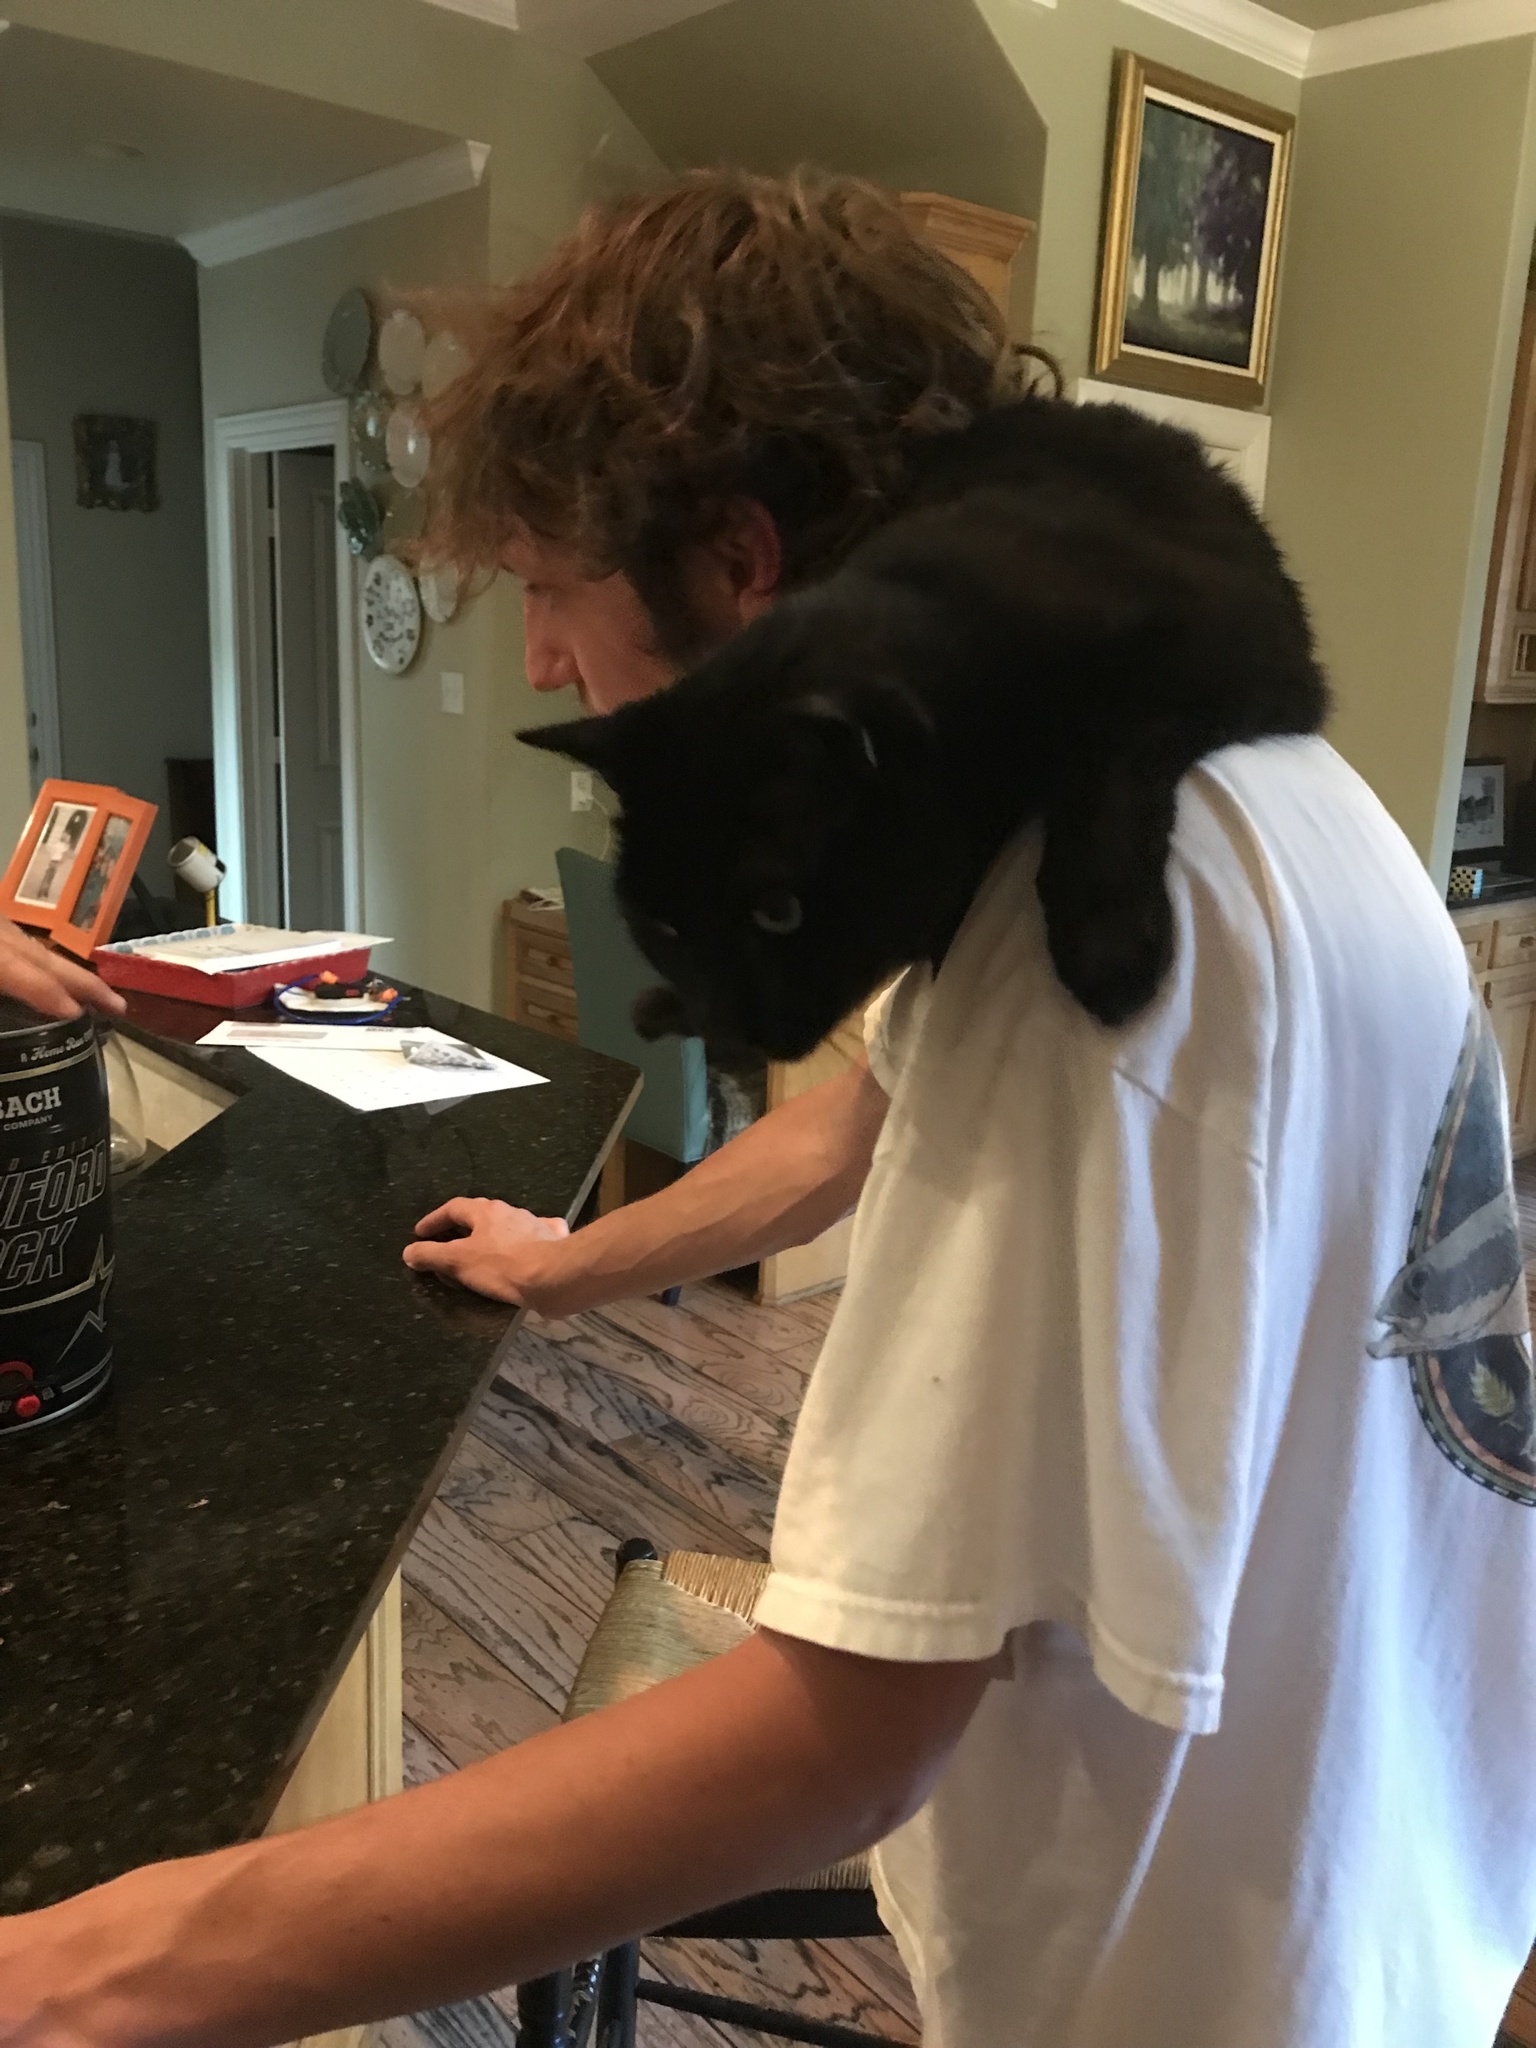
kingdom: Plantae
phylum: Tracheophyta
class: Magnoliopsida
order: Malpighiales
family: Euphorbiaceae
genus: Euphorbia
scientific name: Euphorbia corollata
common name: Flowering spurge
